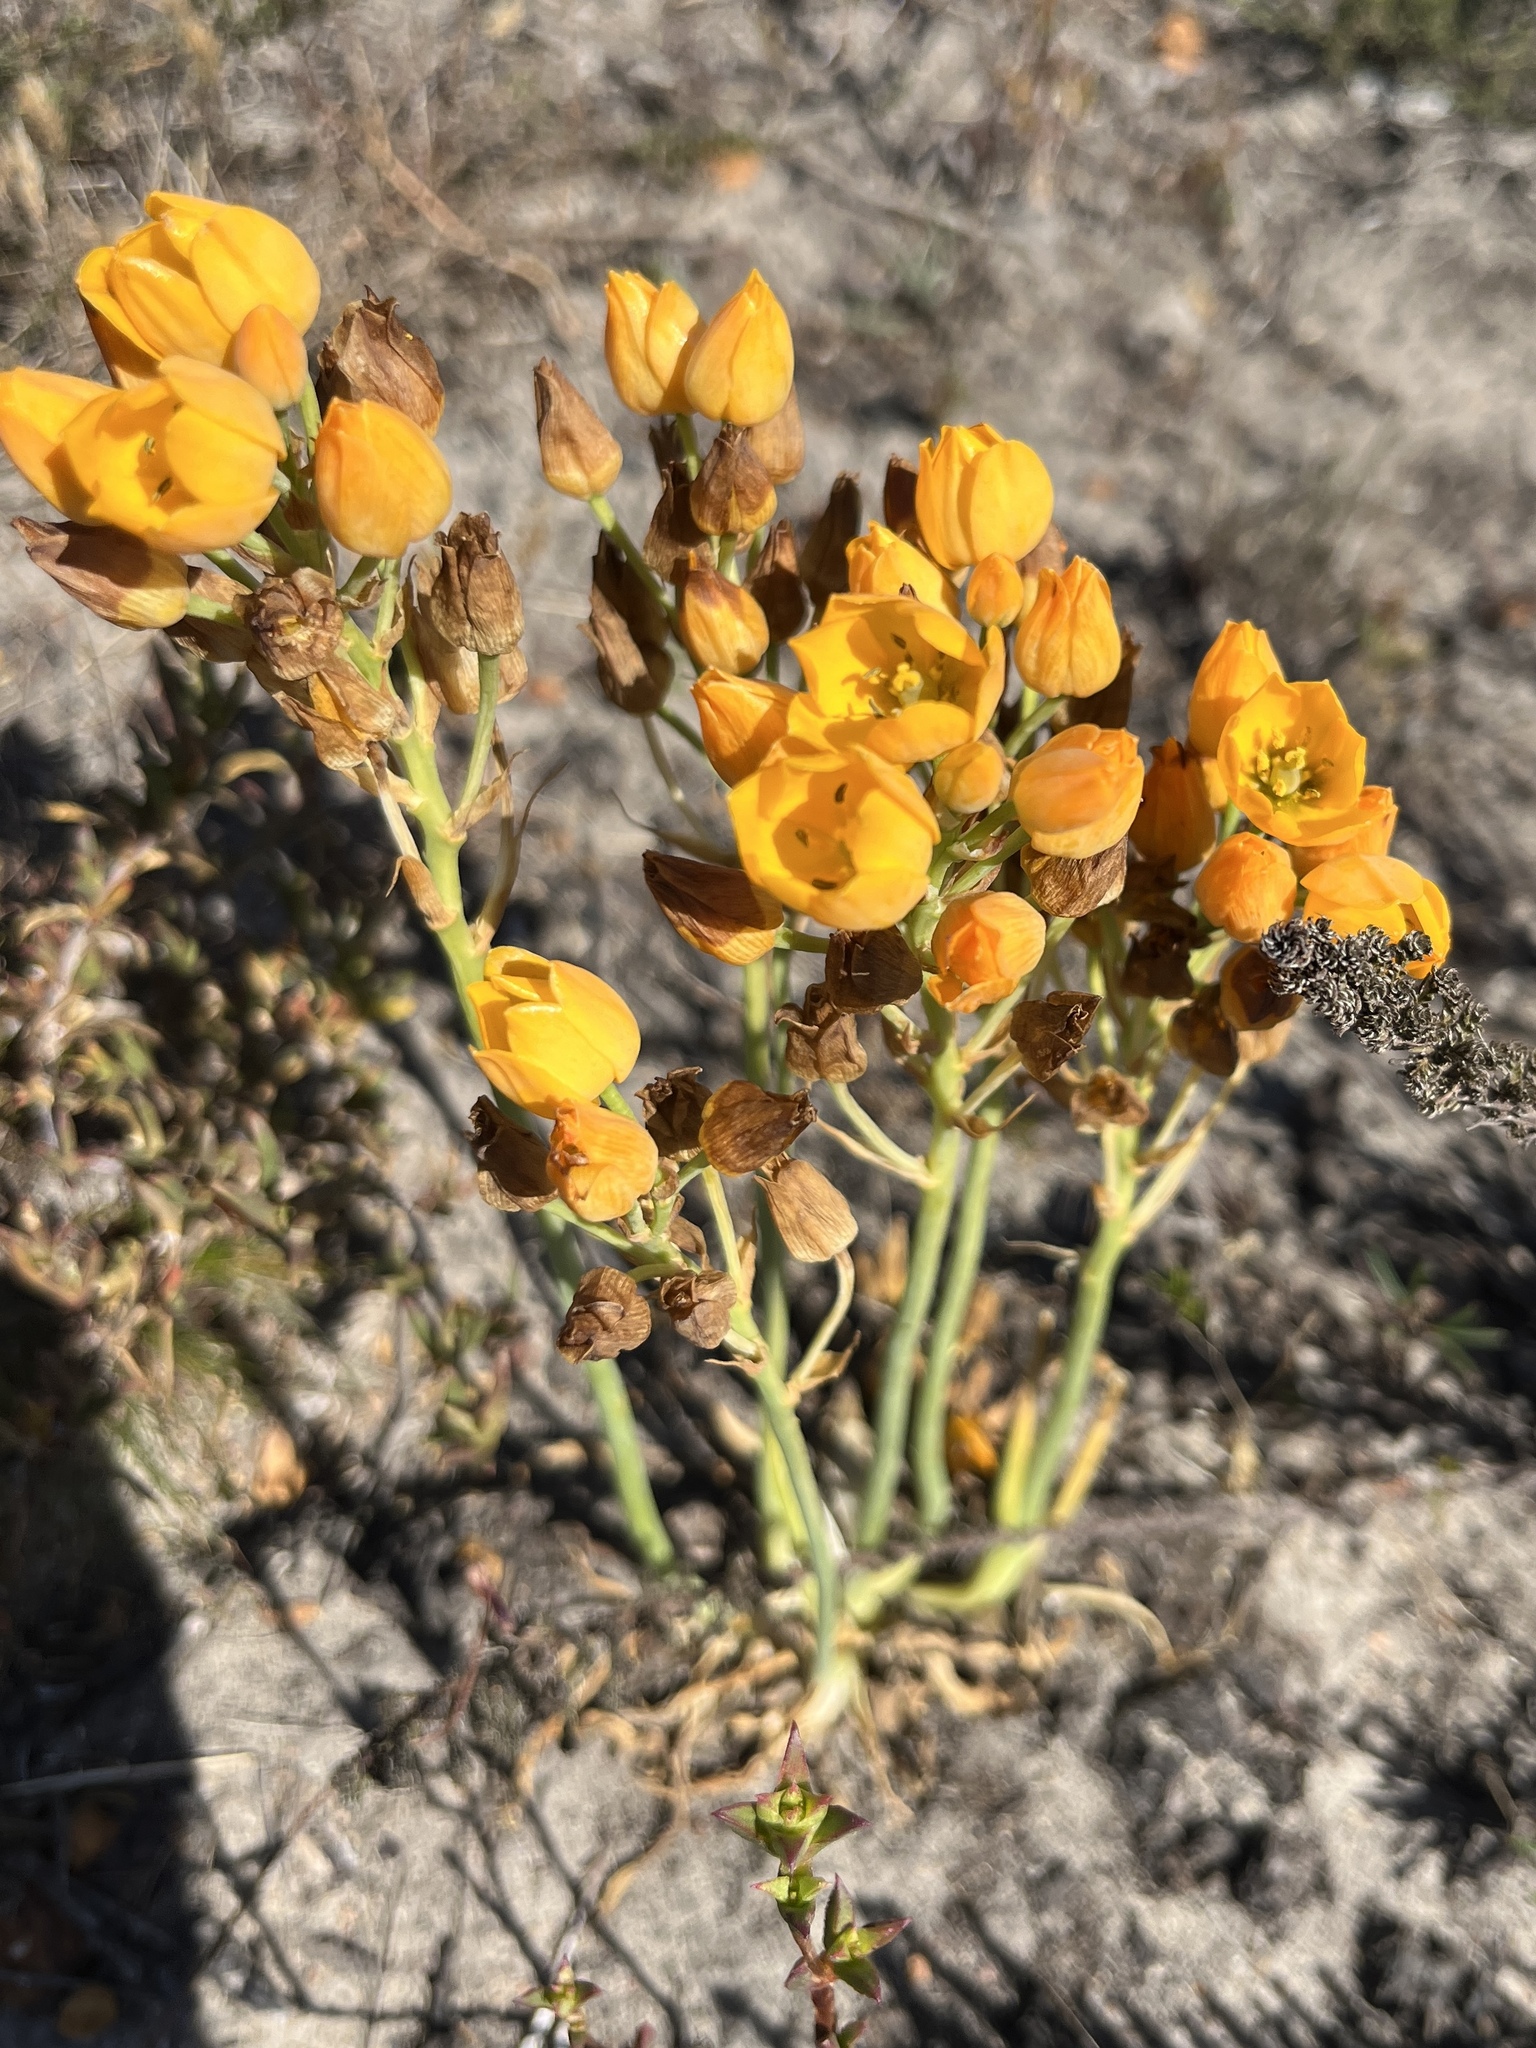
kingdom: Plantae
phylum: Tracheophyta
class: Liliopsida
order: Asparagales
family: Asparagaceae
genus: Ornithogalum
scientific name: Ornithogalum dubium
